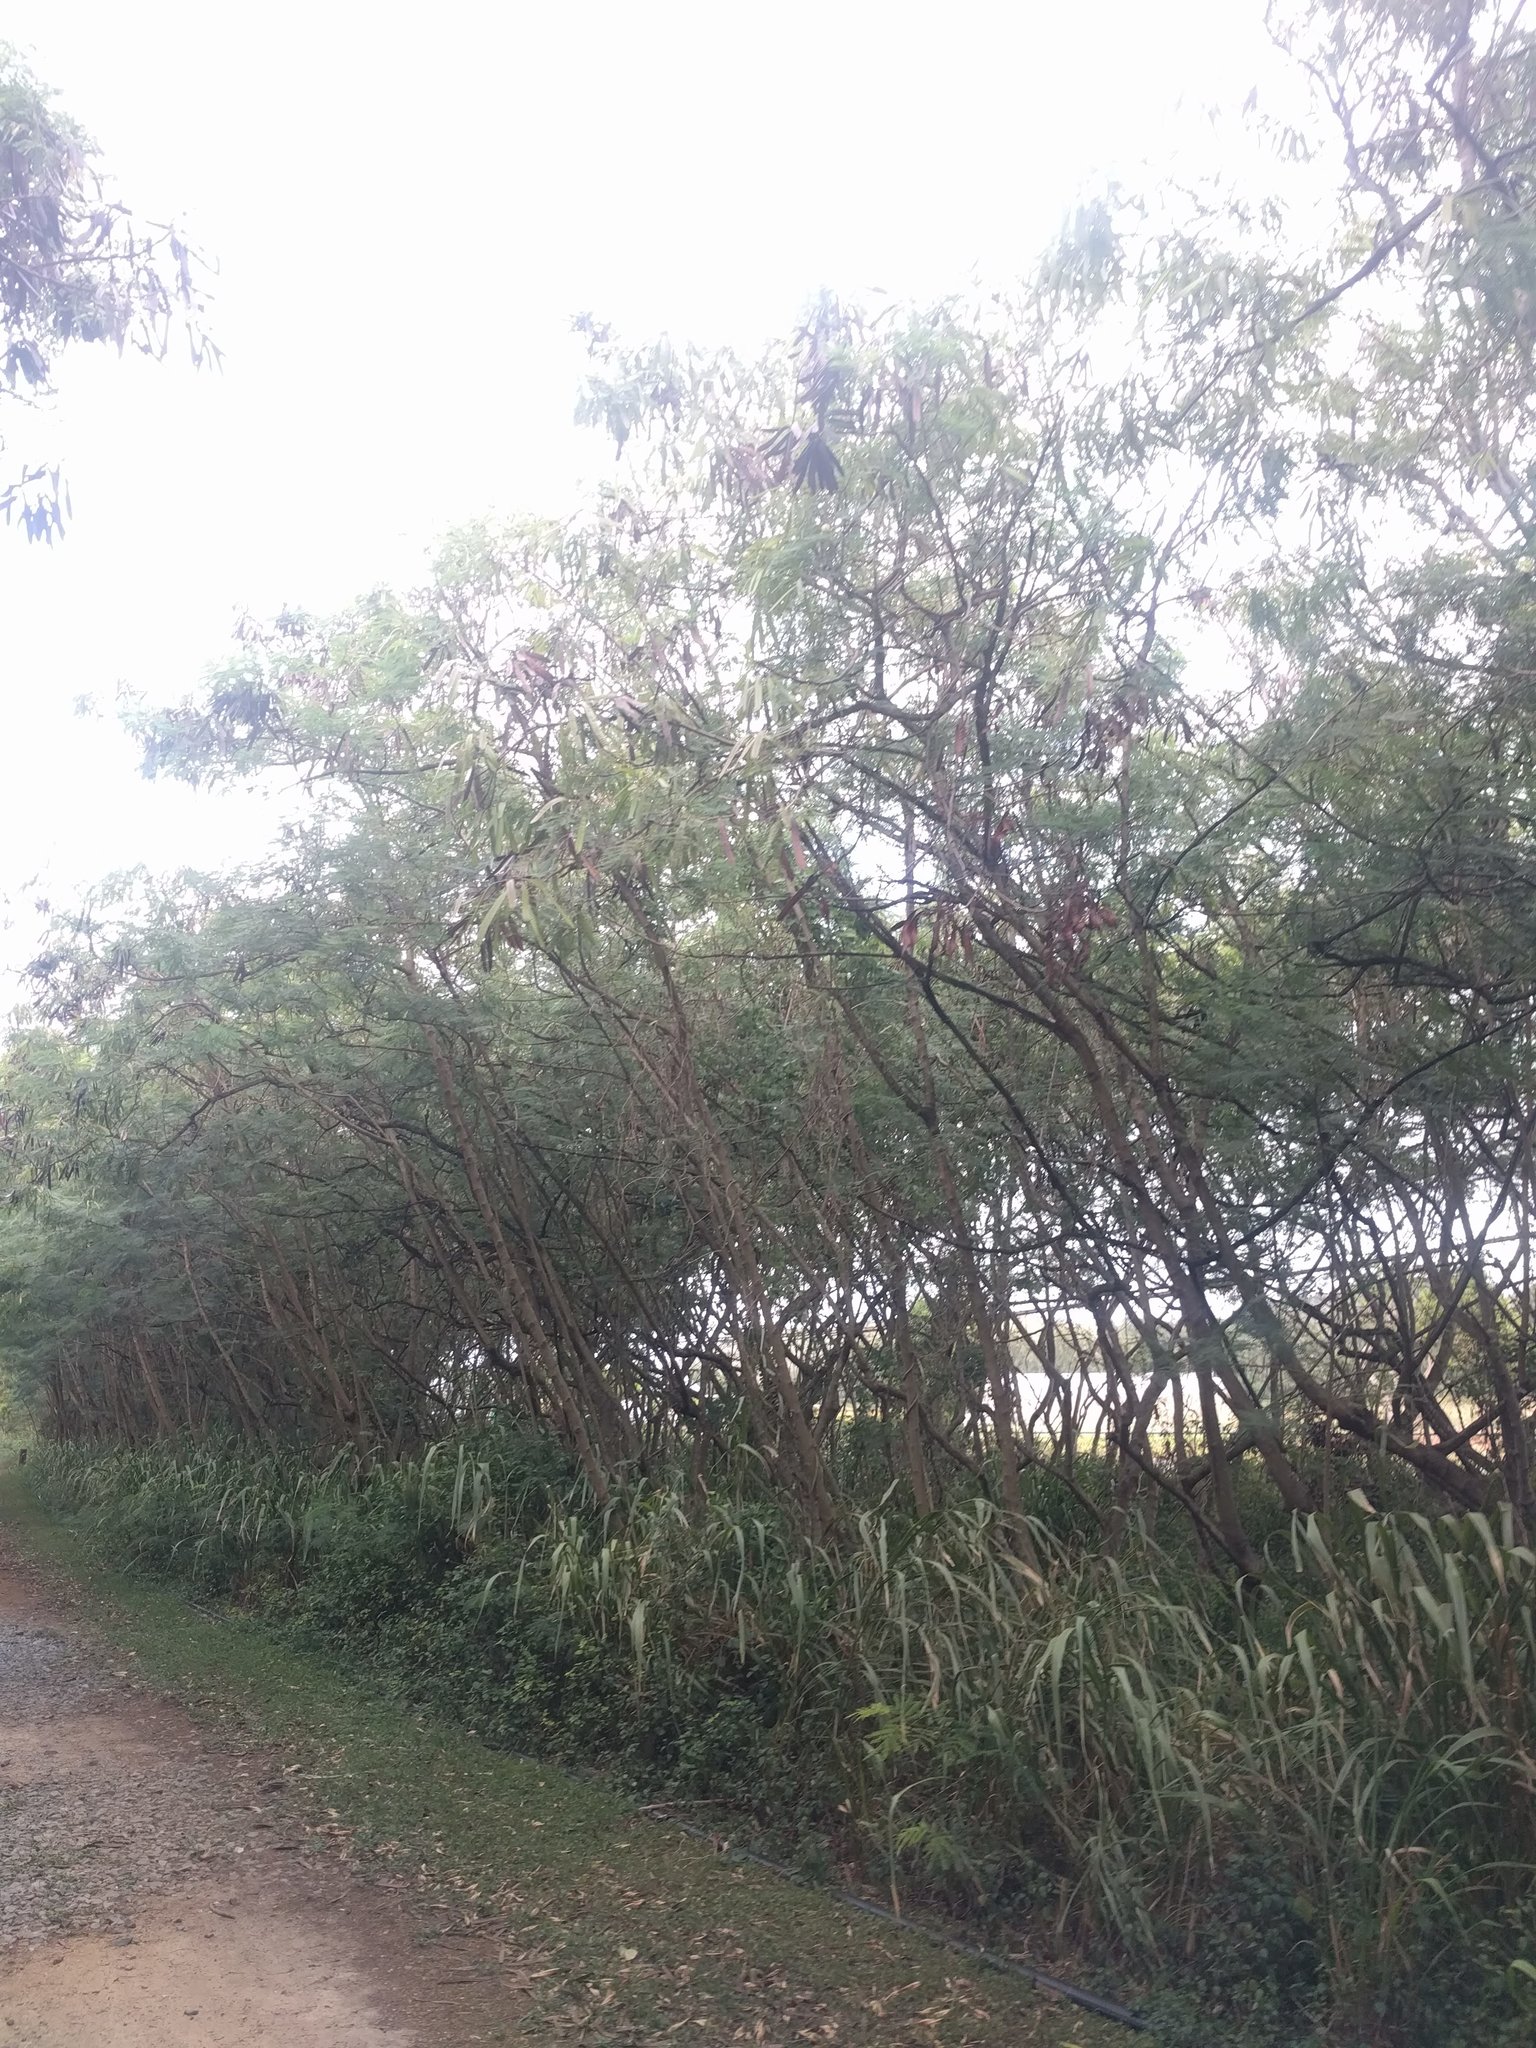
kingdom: Plantae
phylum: Tracheophyta
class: Magnoliopsida
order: Fabales
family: Fabaceae
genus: Leucaena
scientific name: Leucaena leucocephala
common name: White leadtree
